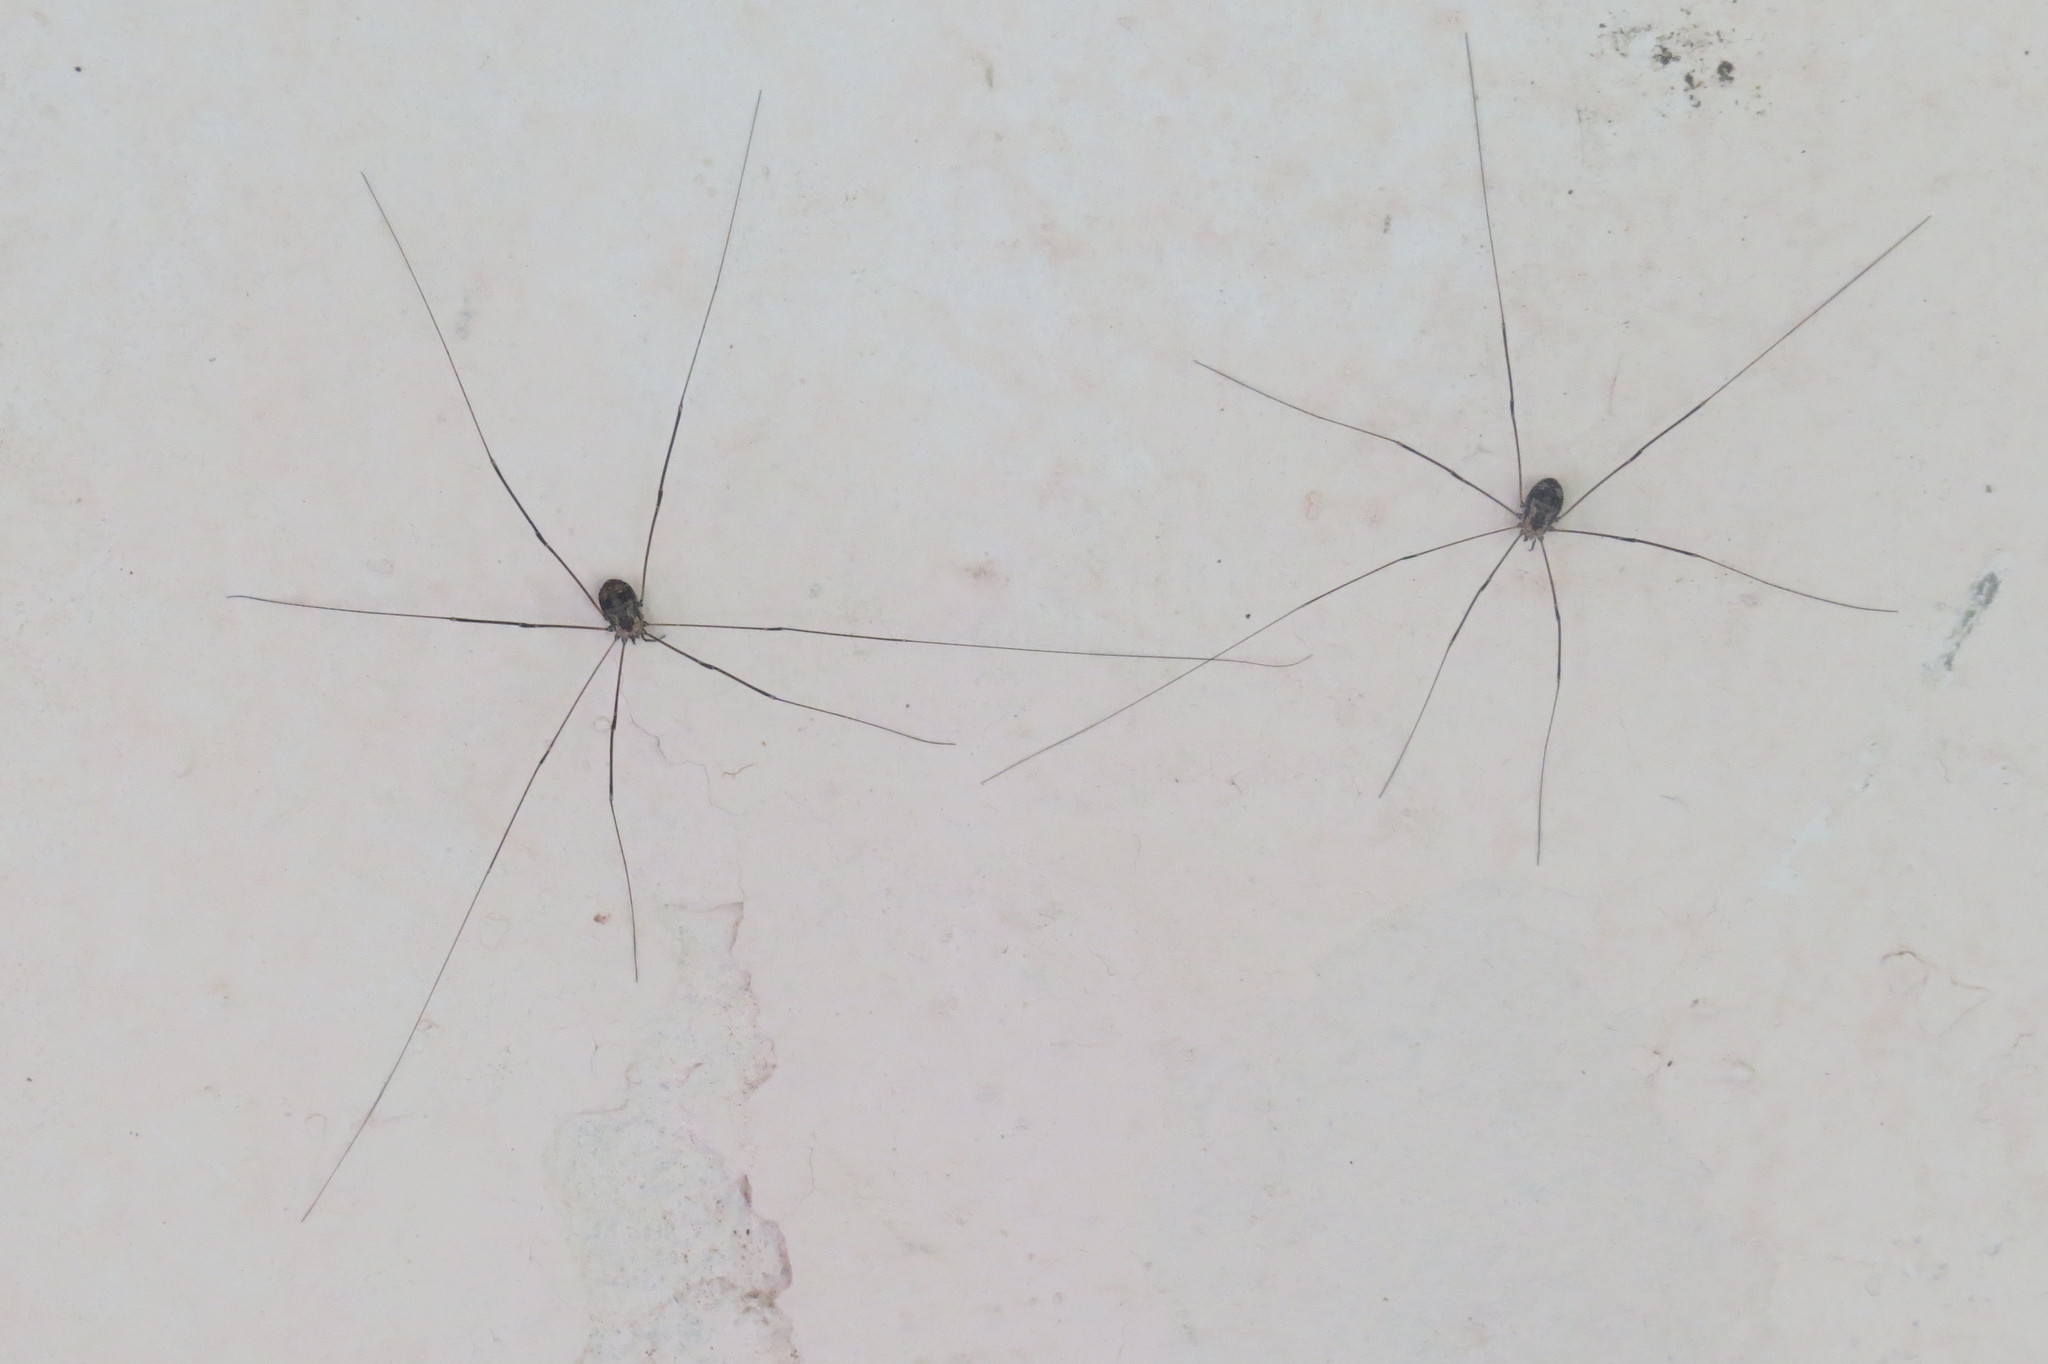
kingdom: Animalia
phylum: Arthropoda
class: Arachnida
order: Opiliones
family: Sclerosomatidae
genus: Leiobunum
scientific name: Leiobunum limbatum
